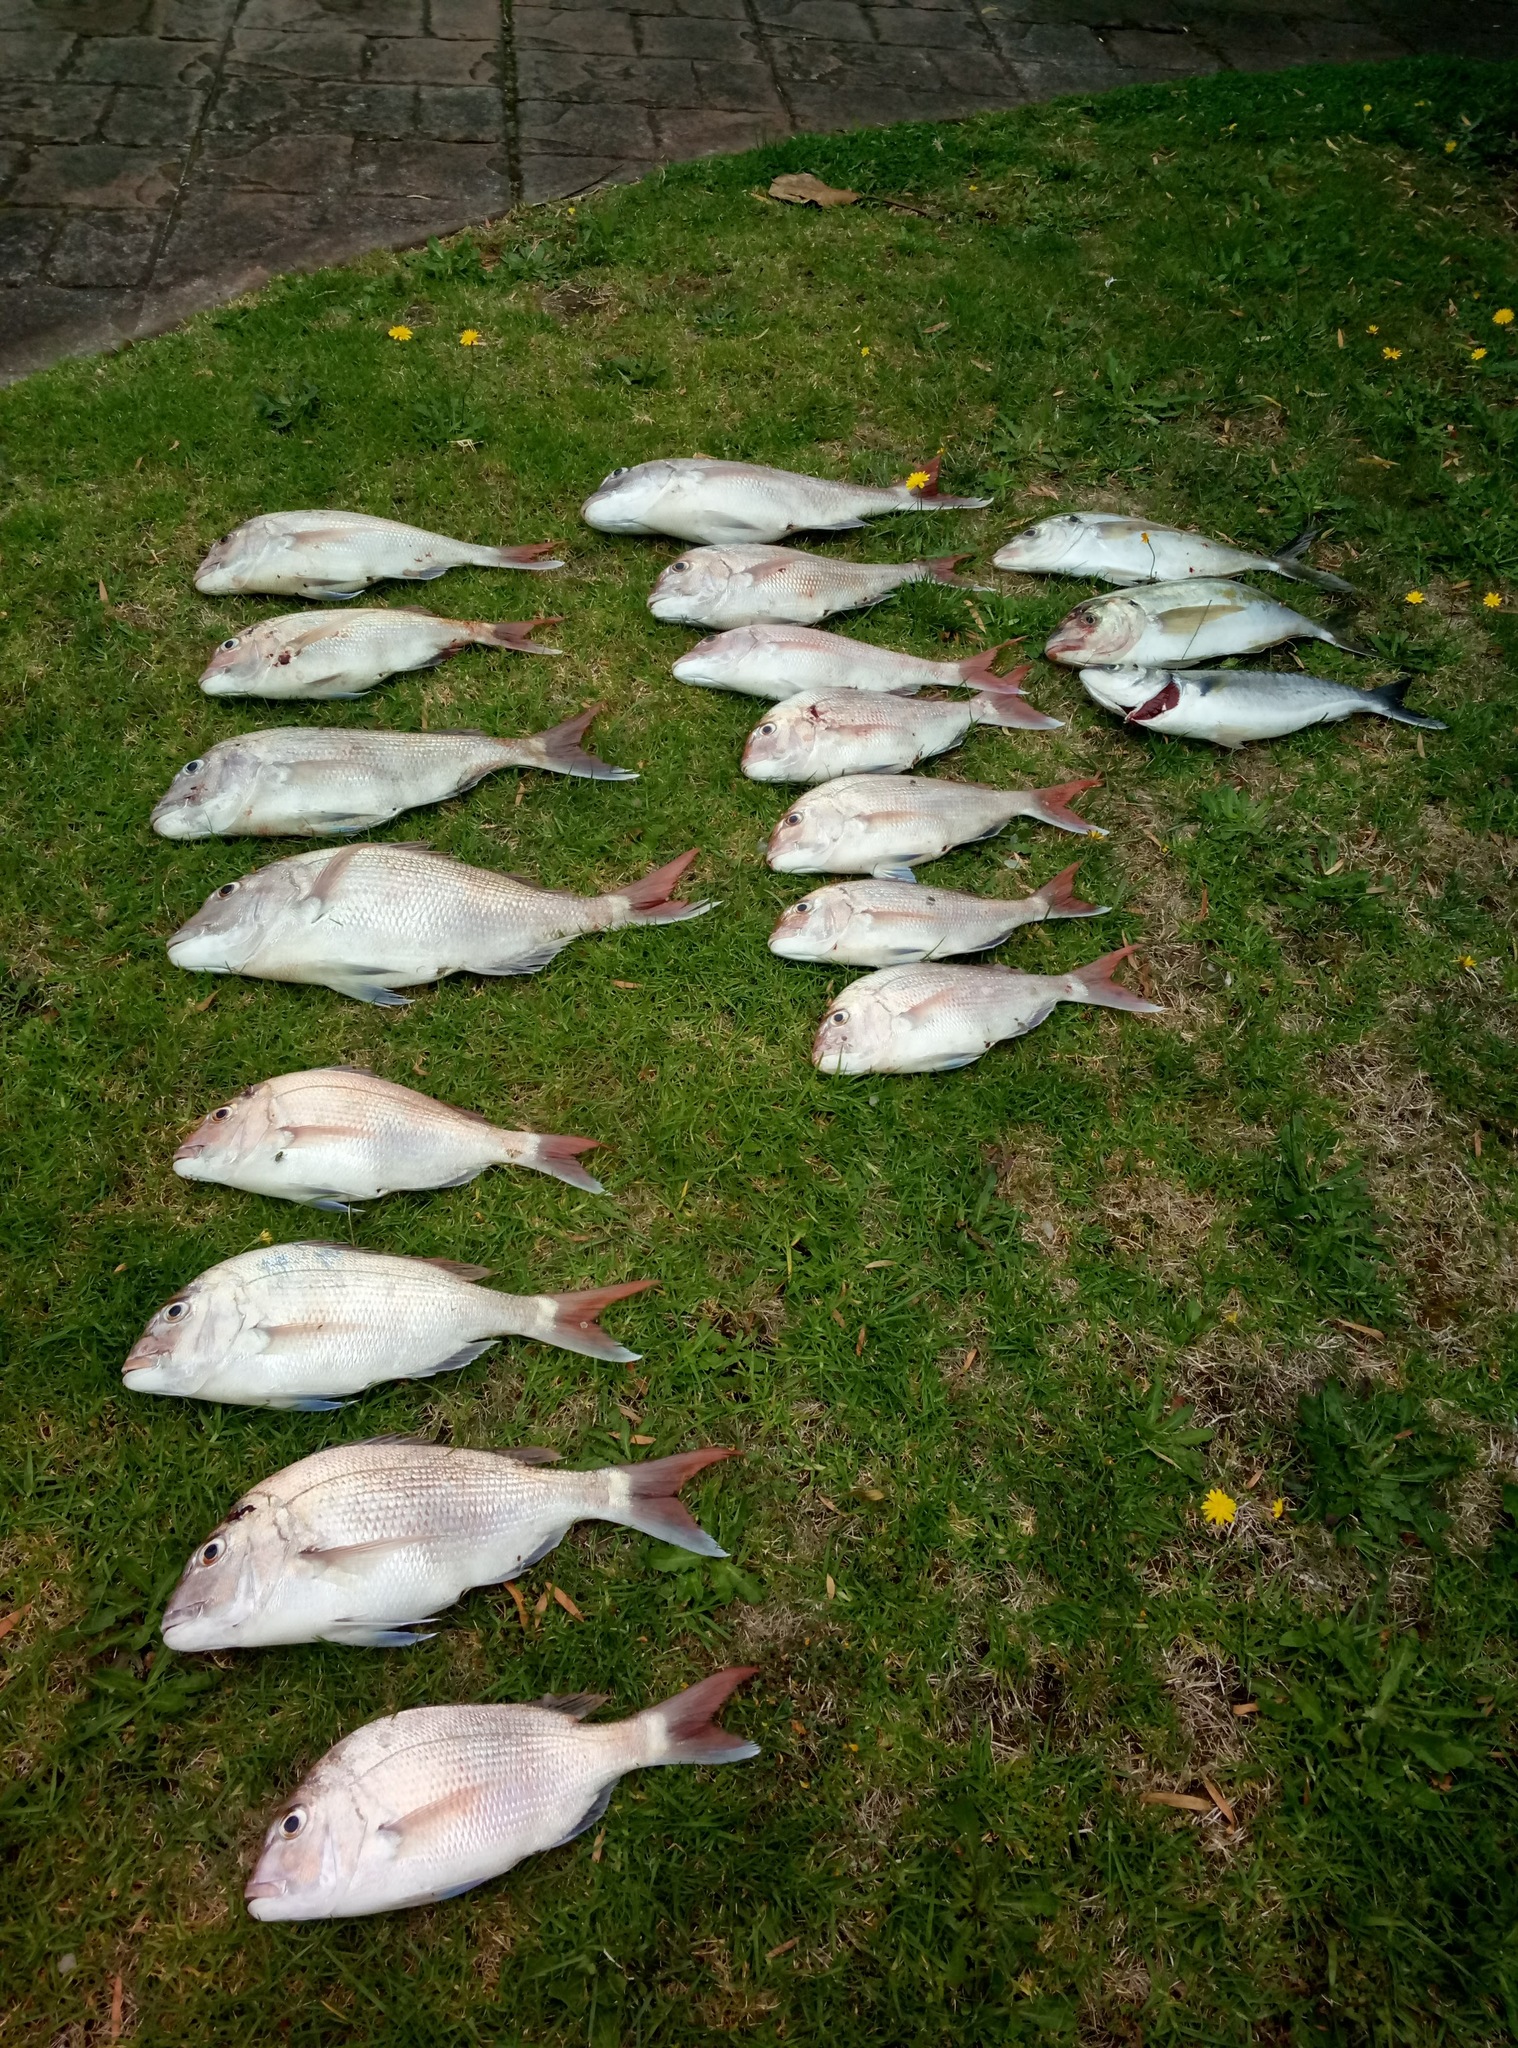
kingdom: Animalia
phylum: Chordata
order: Perciformes
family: Sparidae
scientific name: Sparidae
